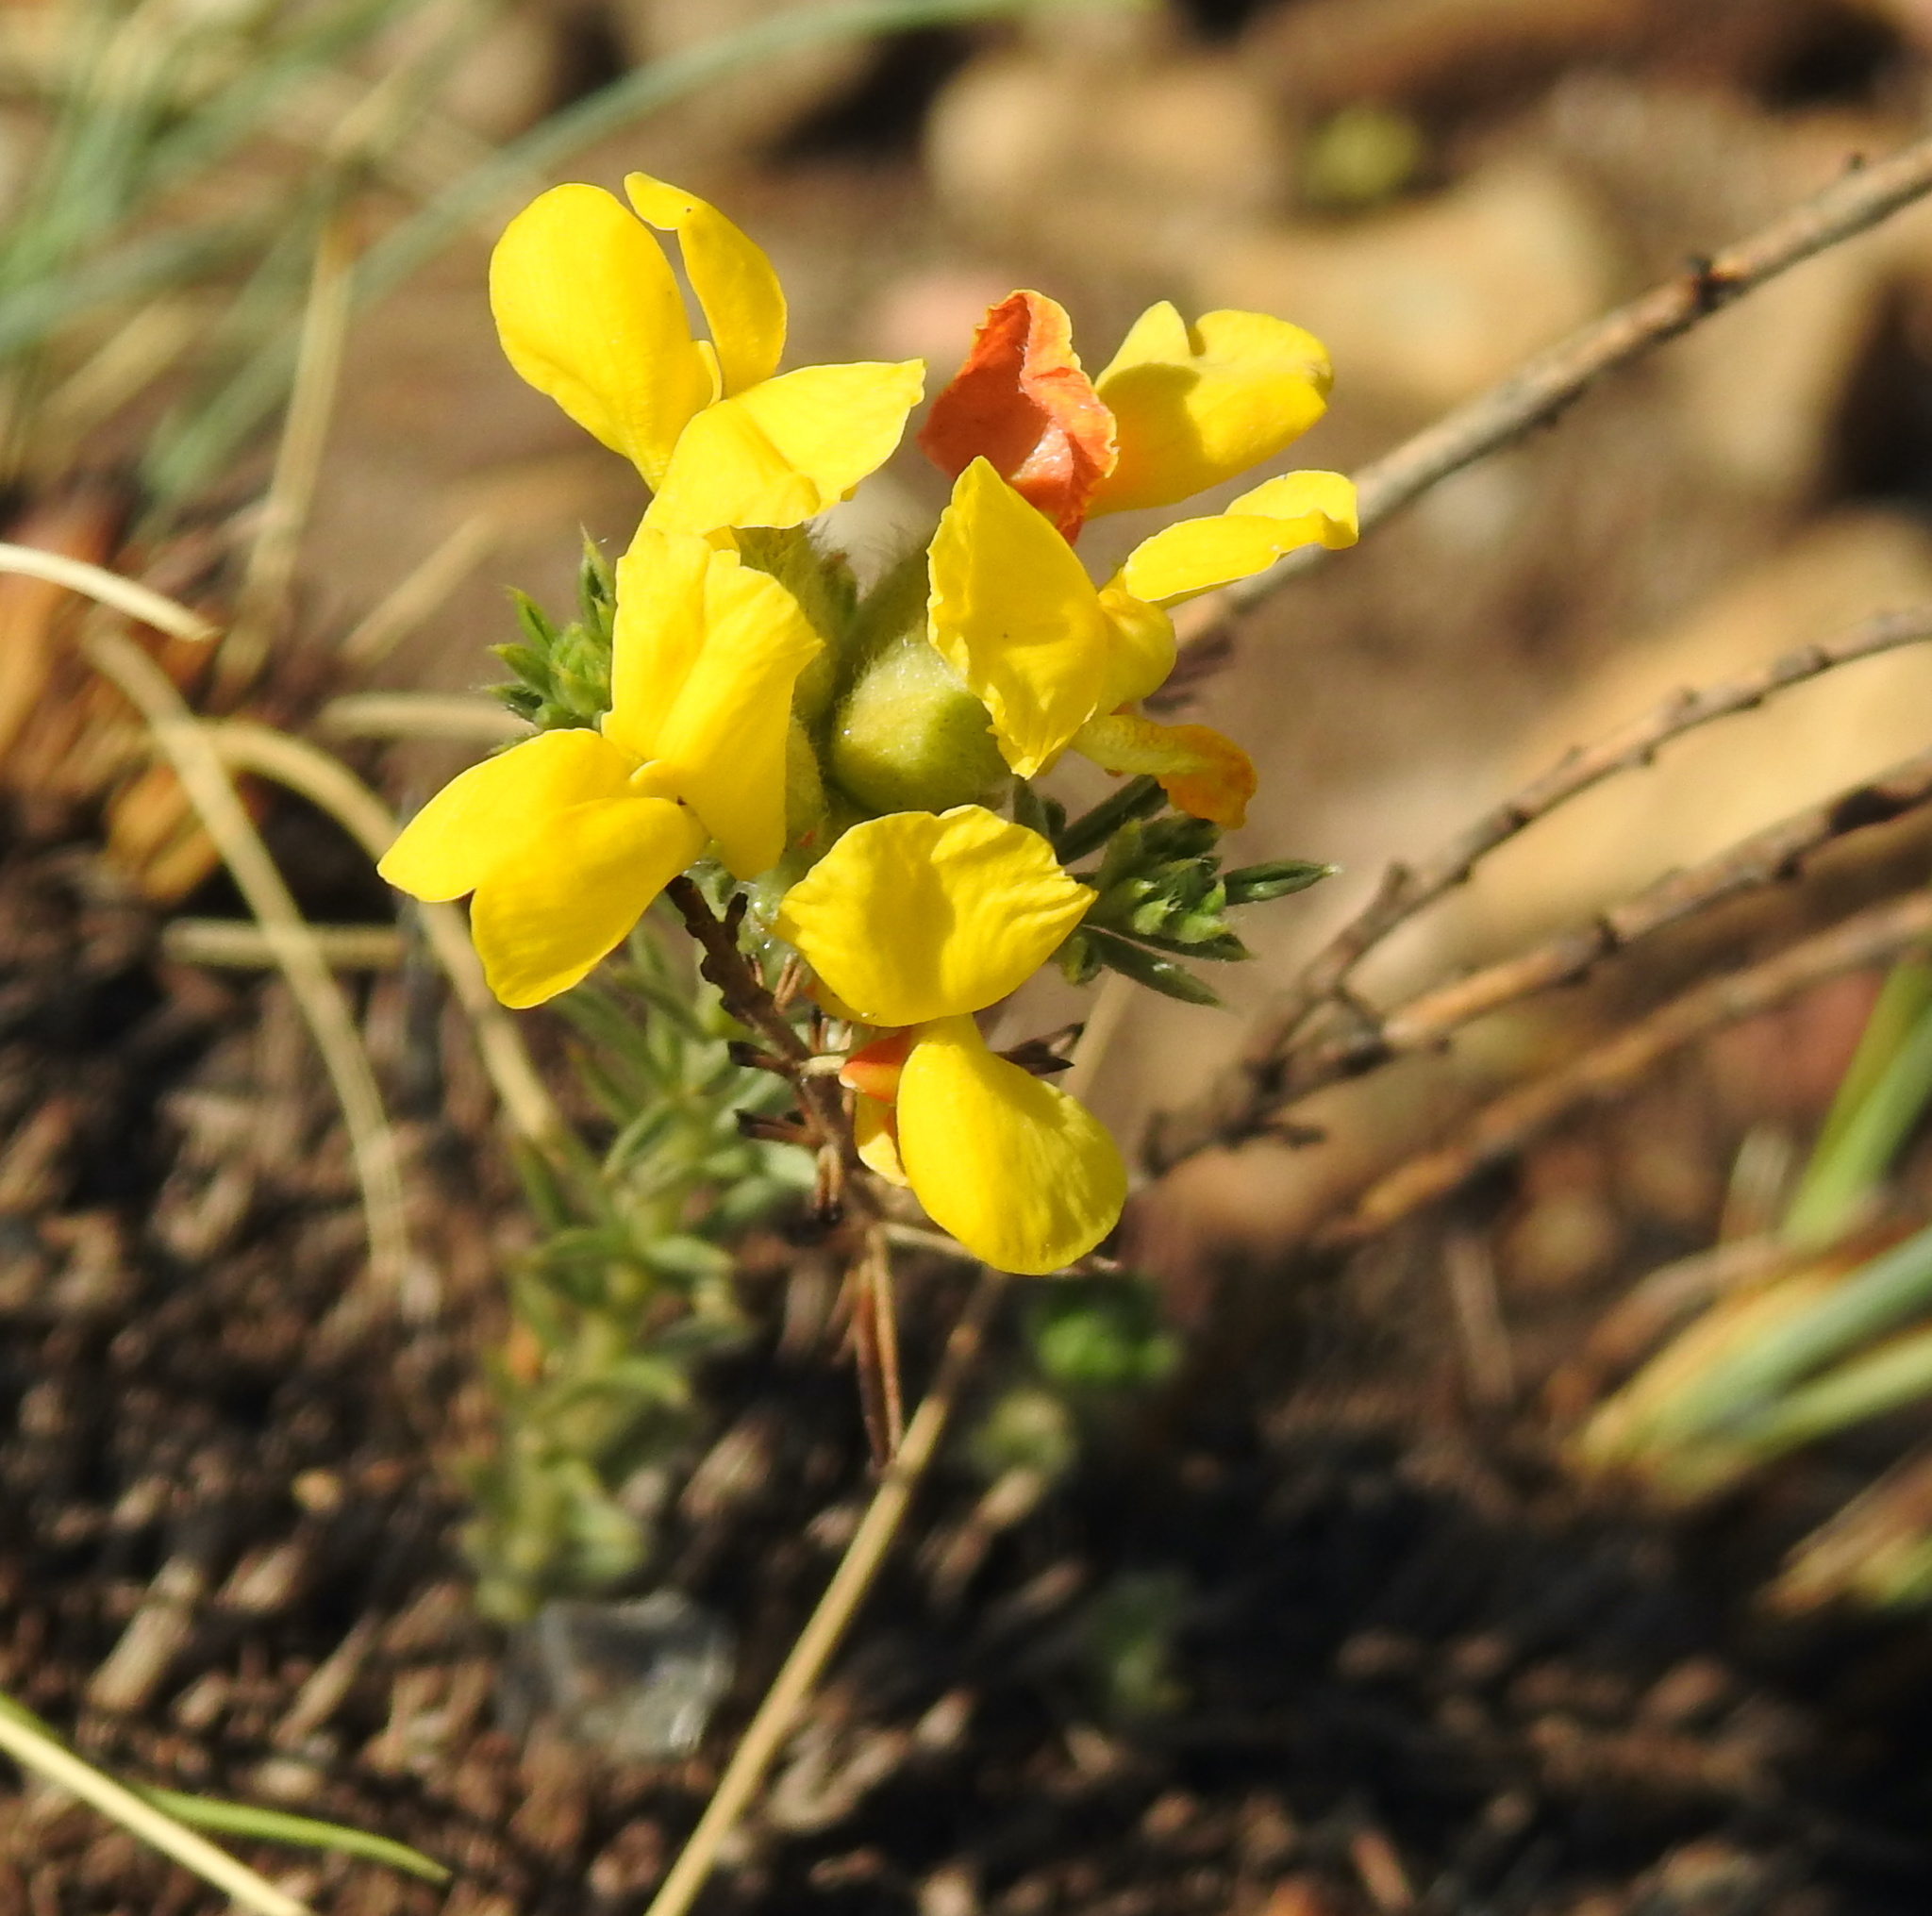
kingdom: Plantae
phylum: Tracheophyta
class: Magnoliopsida
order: Fabales
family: Fabaceae
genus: Pearsonia
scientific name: Pearsonia sessilifolia
